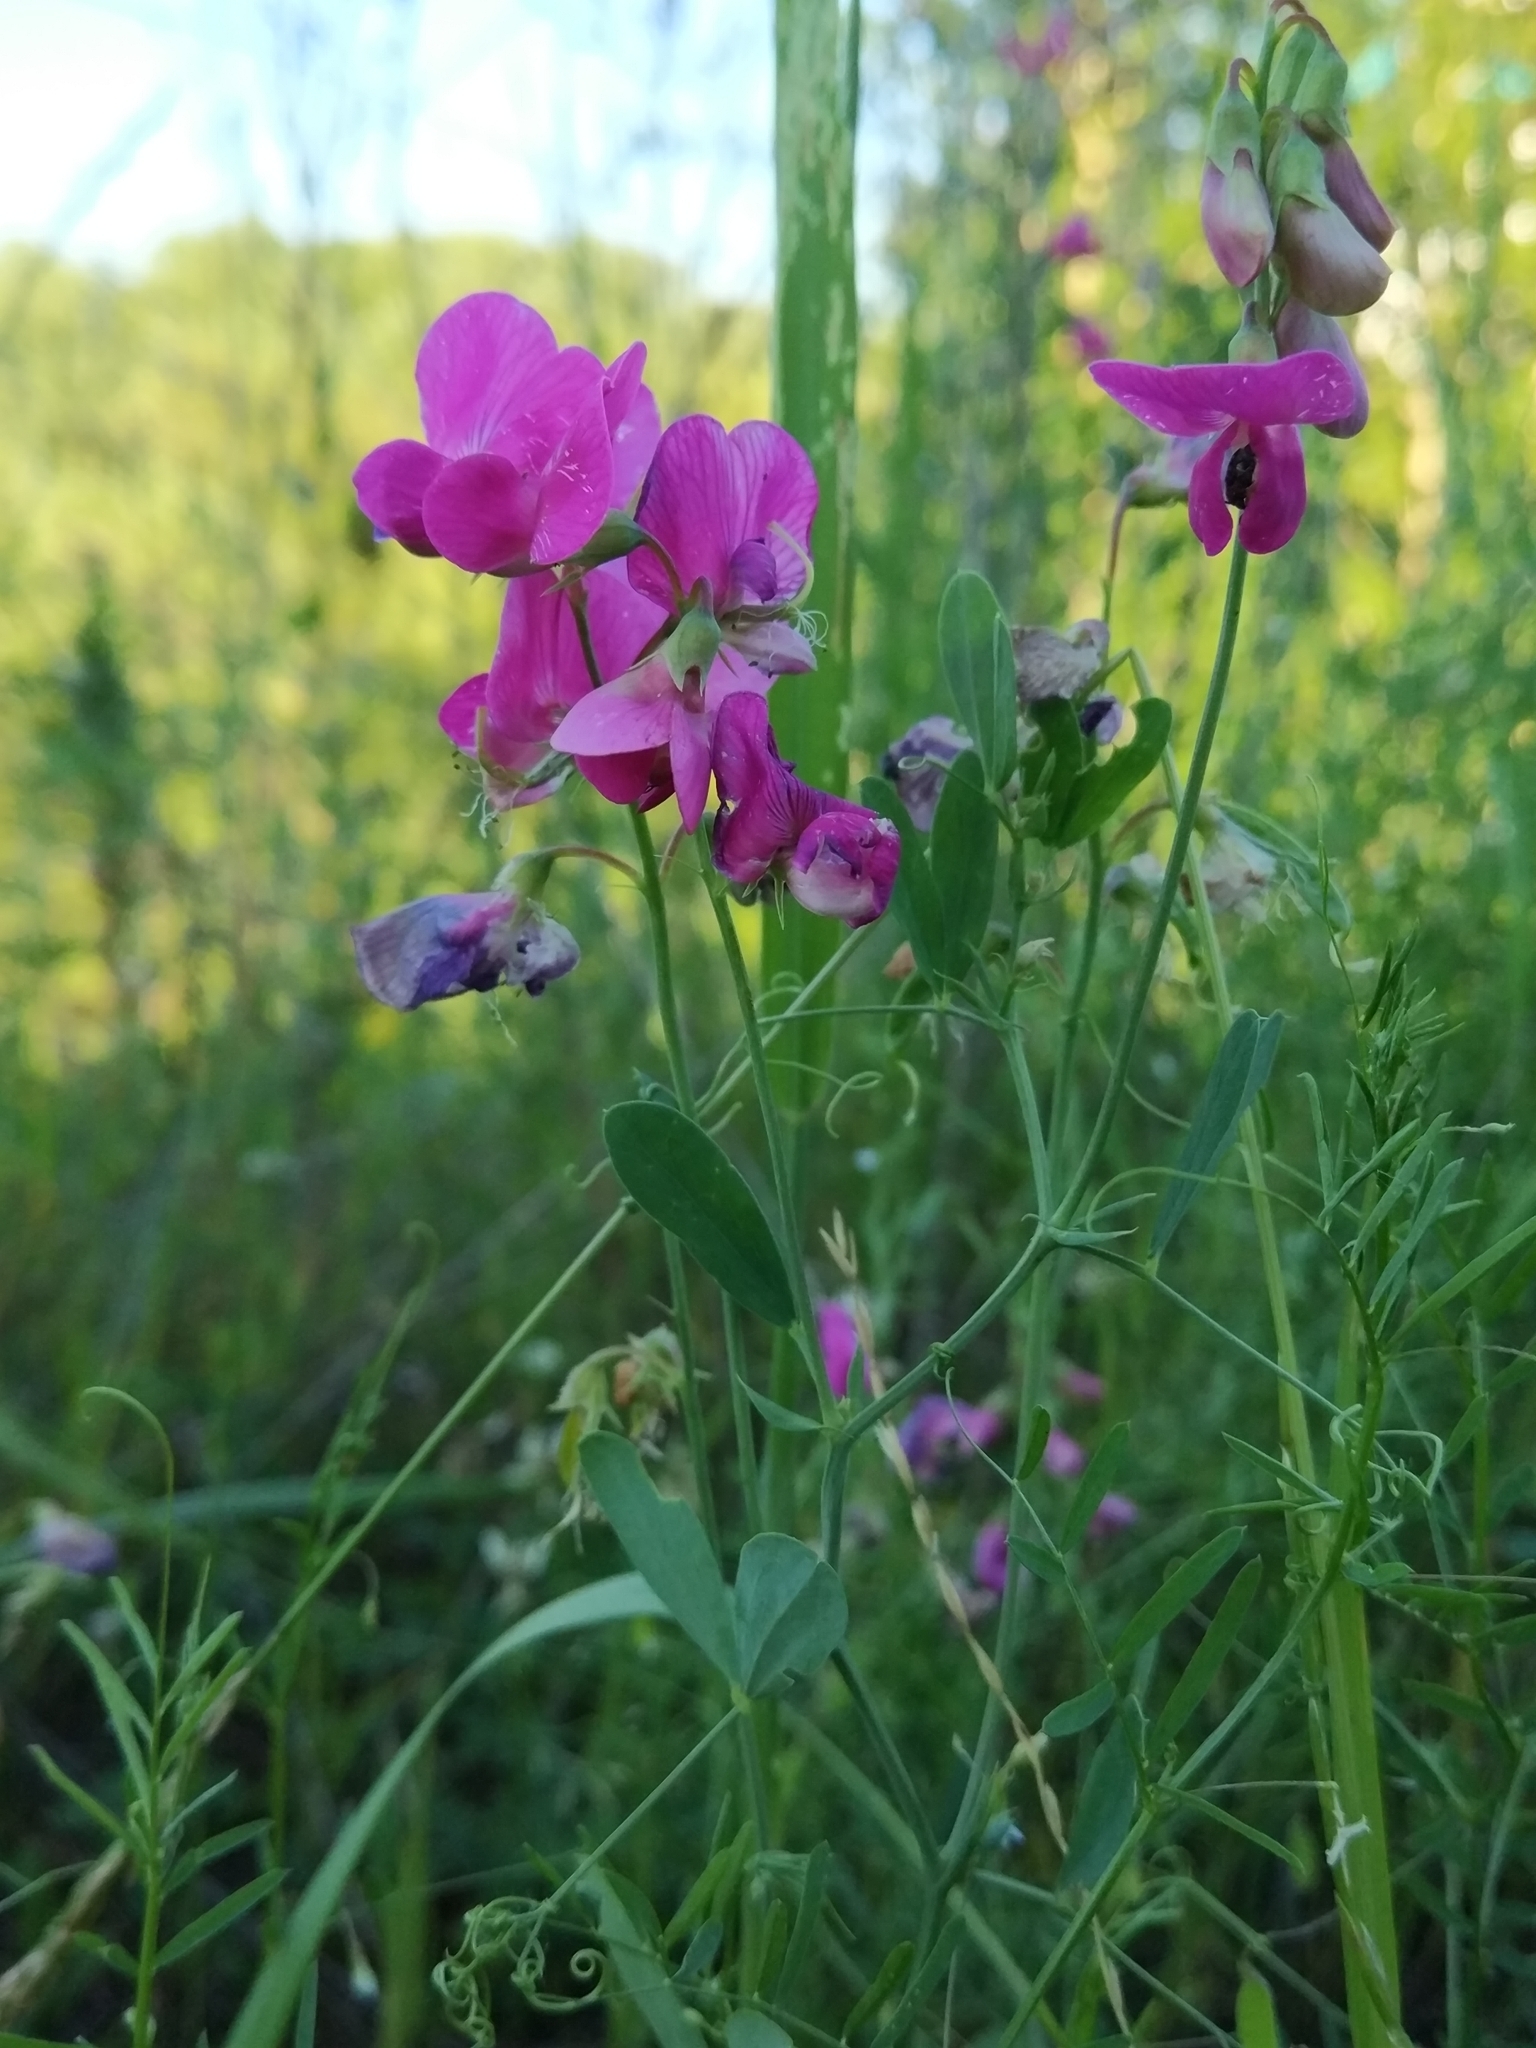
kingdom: Plantae
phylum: Tracheophyta
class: Magnoliopsida
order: Fabales
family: Fabaceae
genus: Lathyrus
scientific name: Lathyrus tuberosus
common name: Tuberous pea
